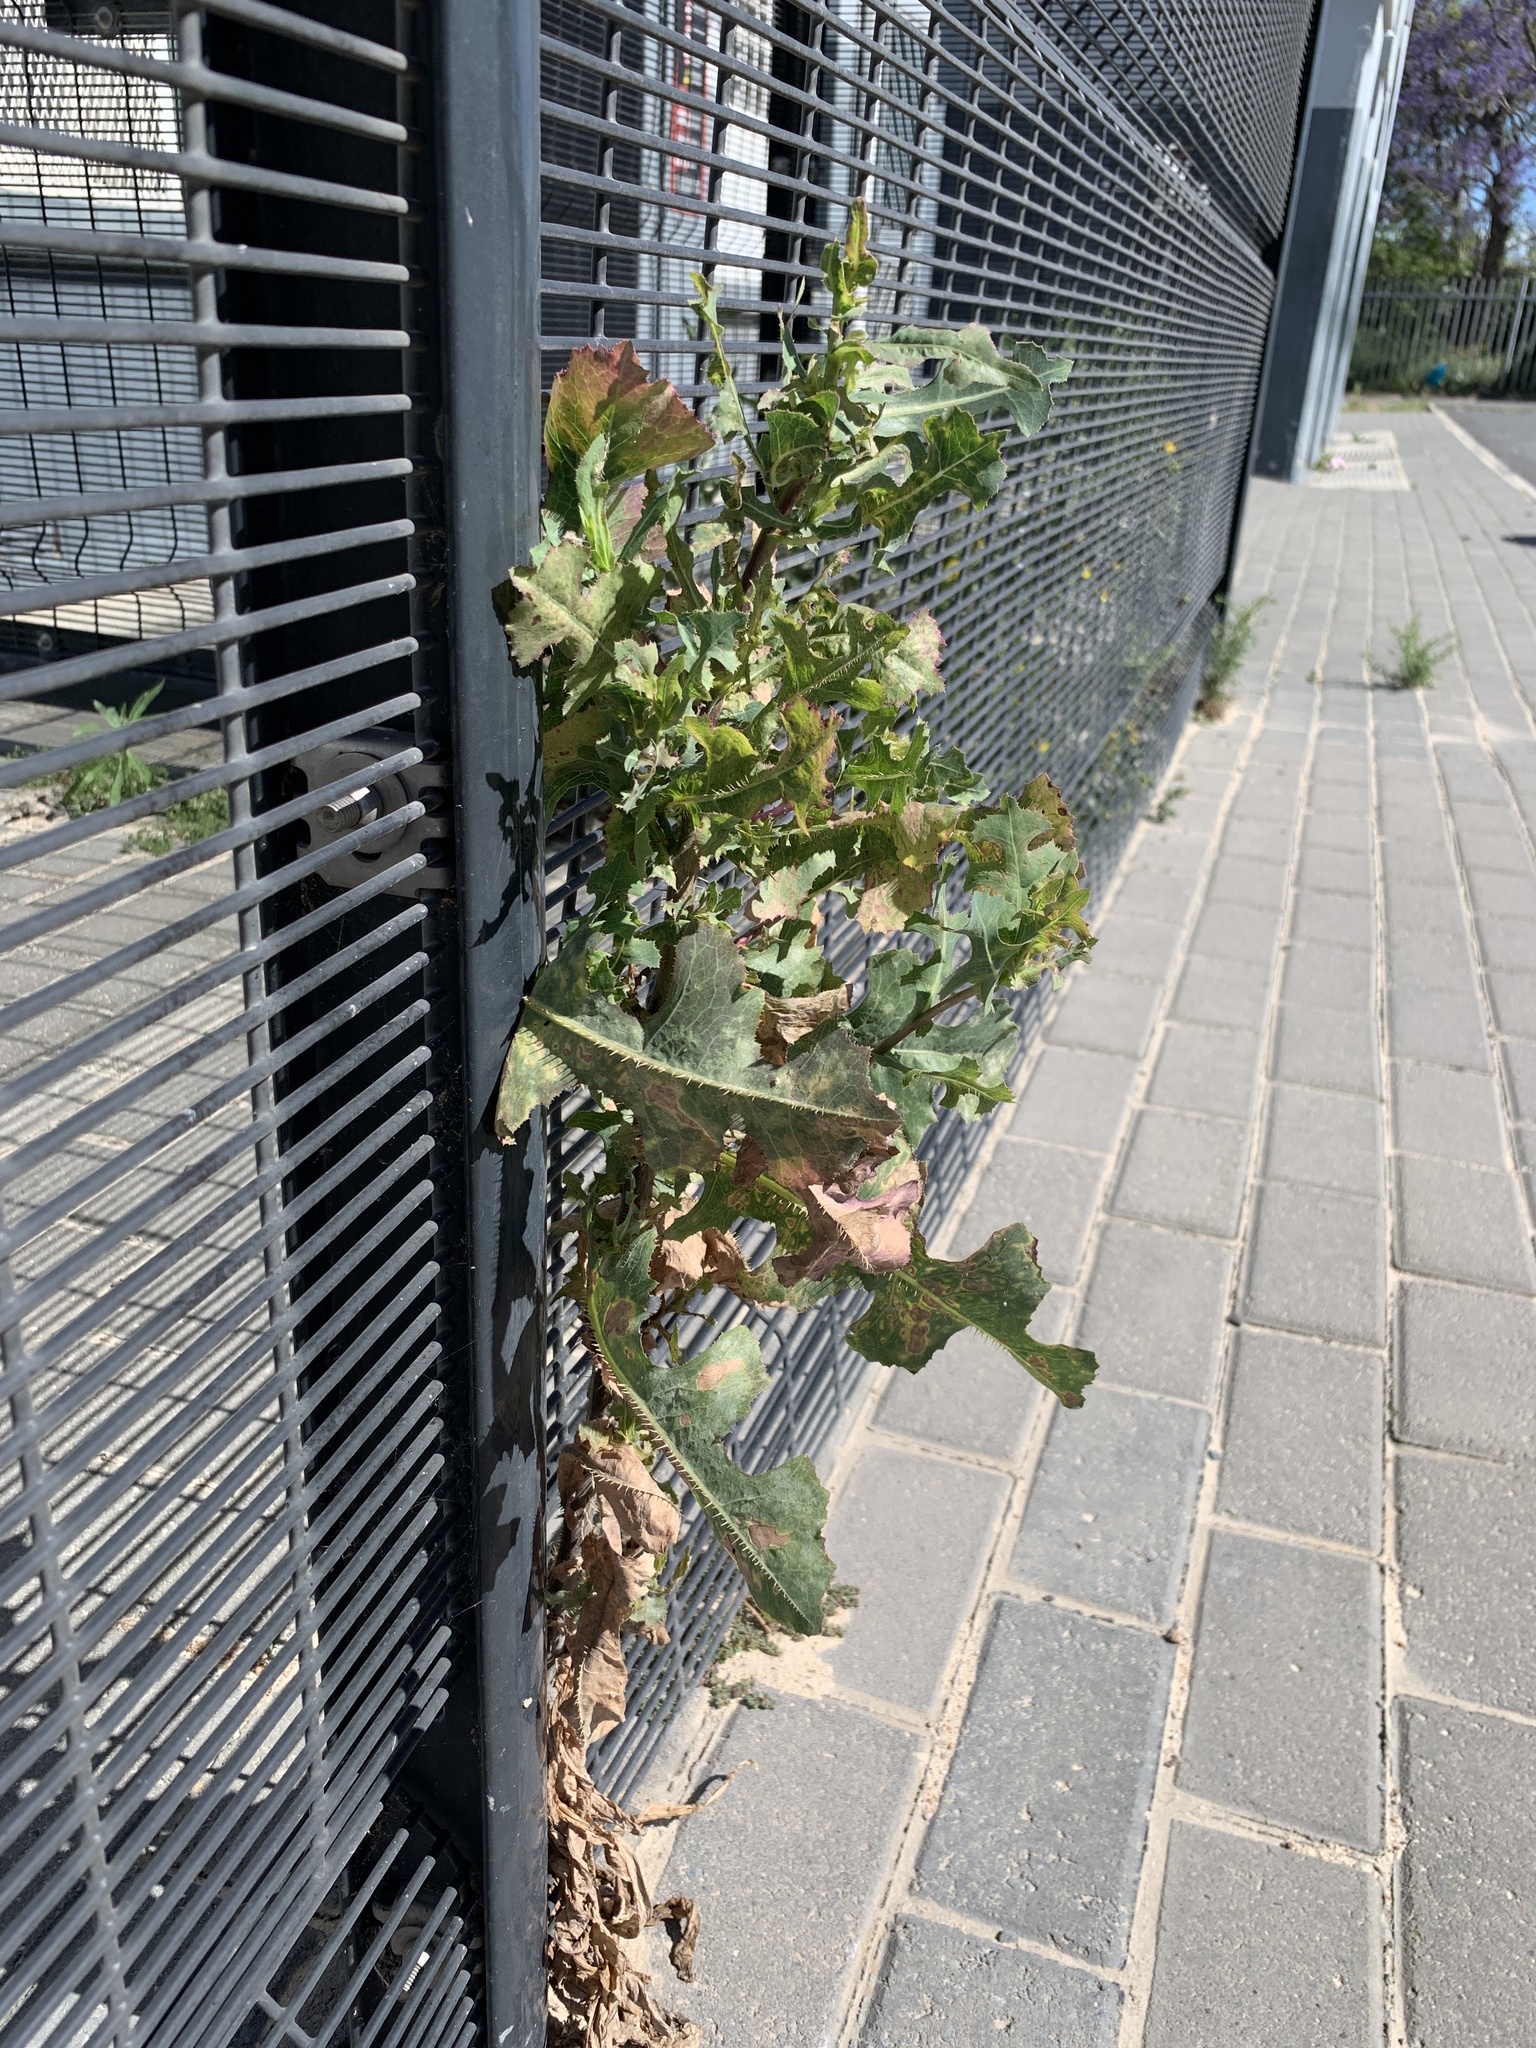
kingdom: Plantae
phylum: Tracheophyta
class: Magnoliopsida
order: Asterales
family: Asteraceae
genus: Lactuca
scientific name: Lactuca serriola
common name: Prickly lettuce
